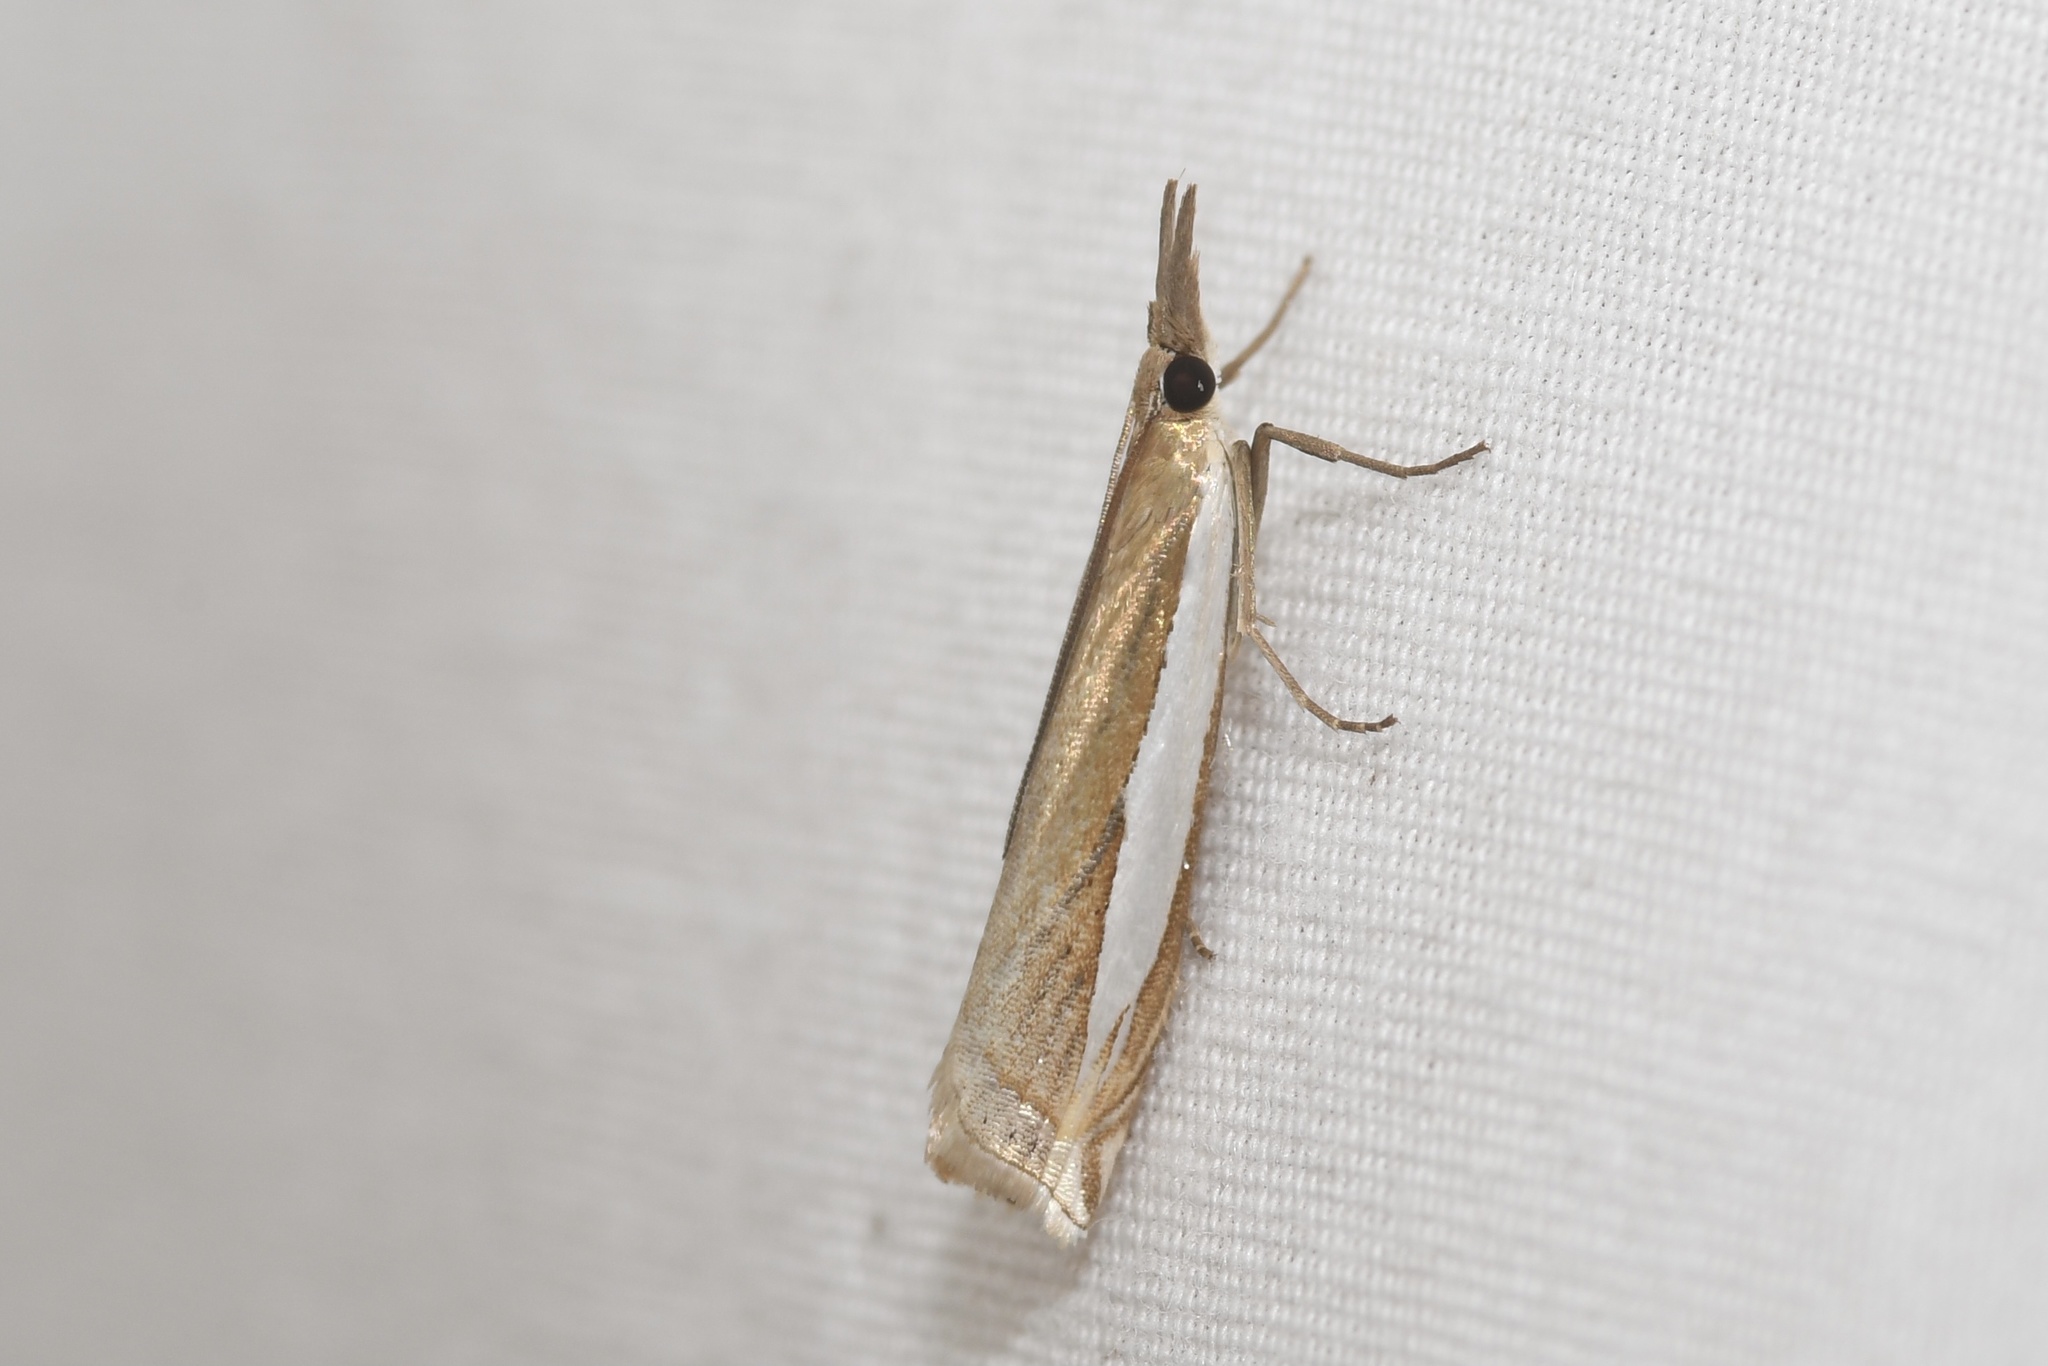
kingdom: Animalia
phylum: Arthropoda
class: Insecta
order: Lepidoptera
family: Crambidae
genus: Crambus
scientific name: Crambus leachellus
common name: Leach's grass-veneer
